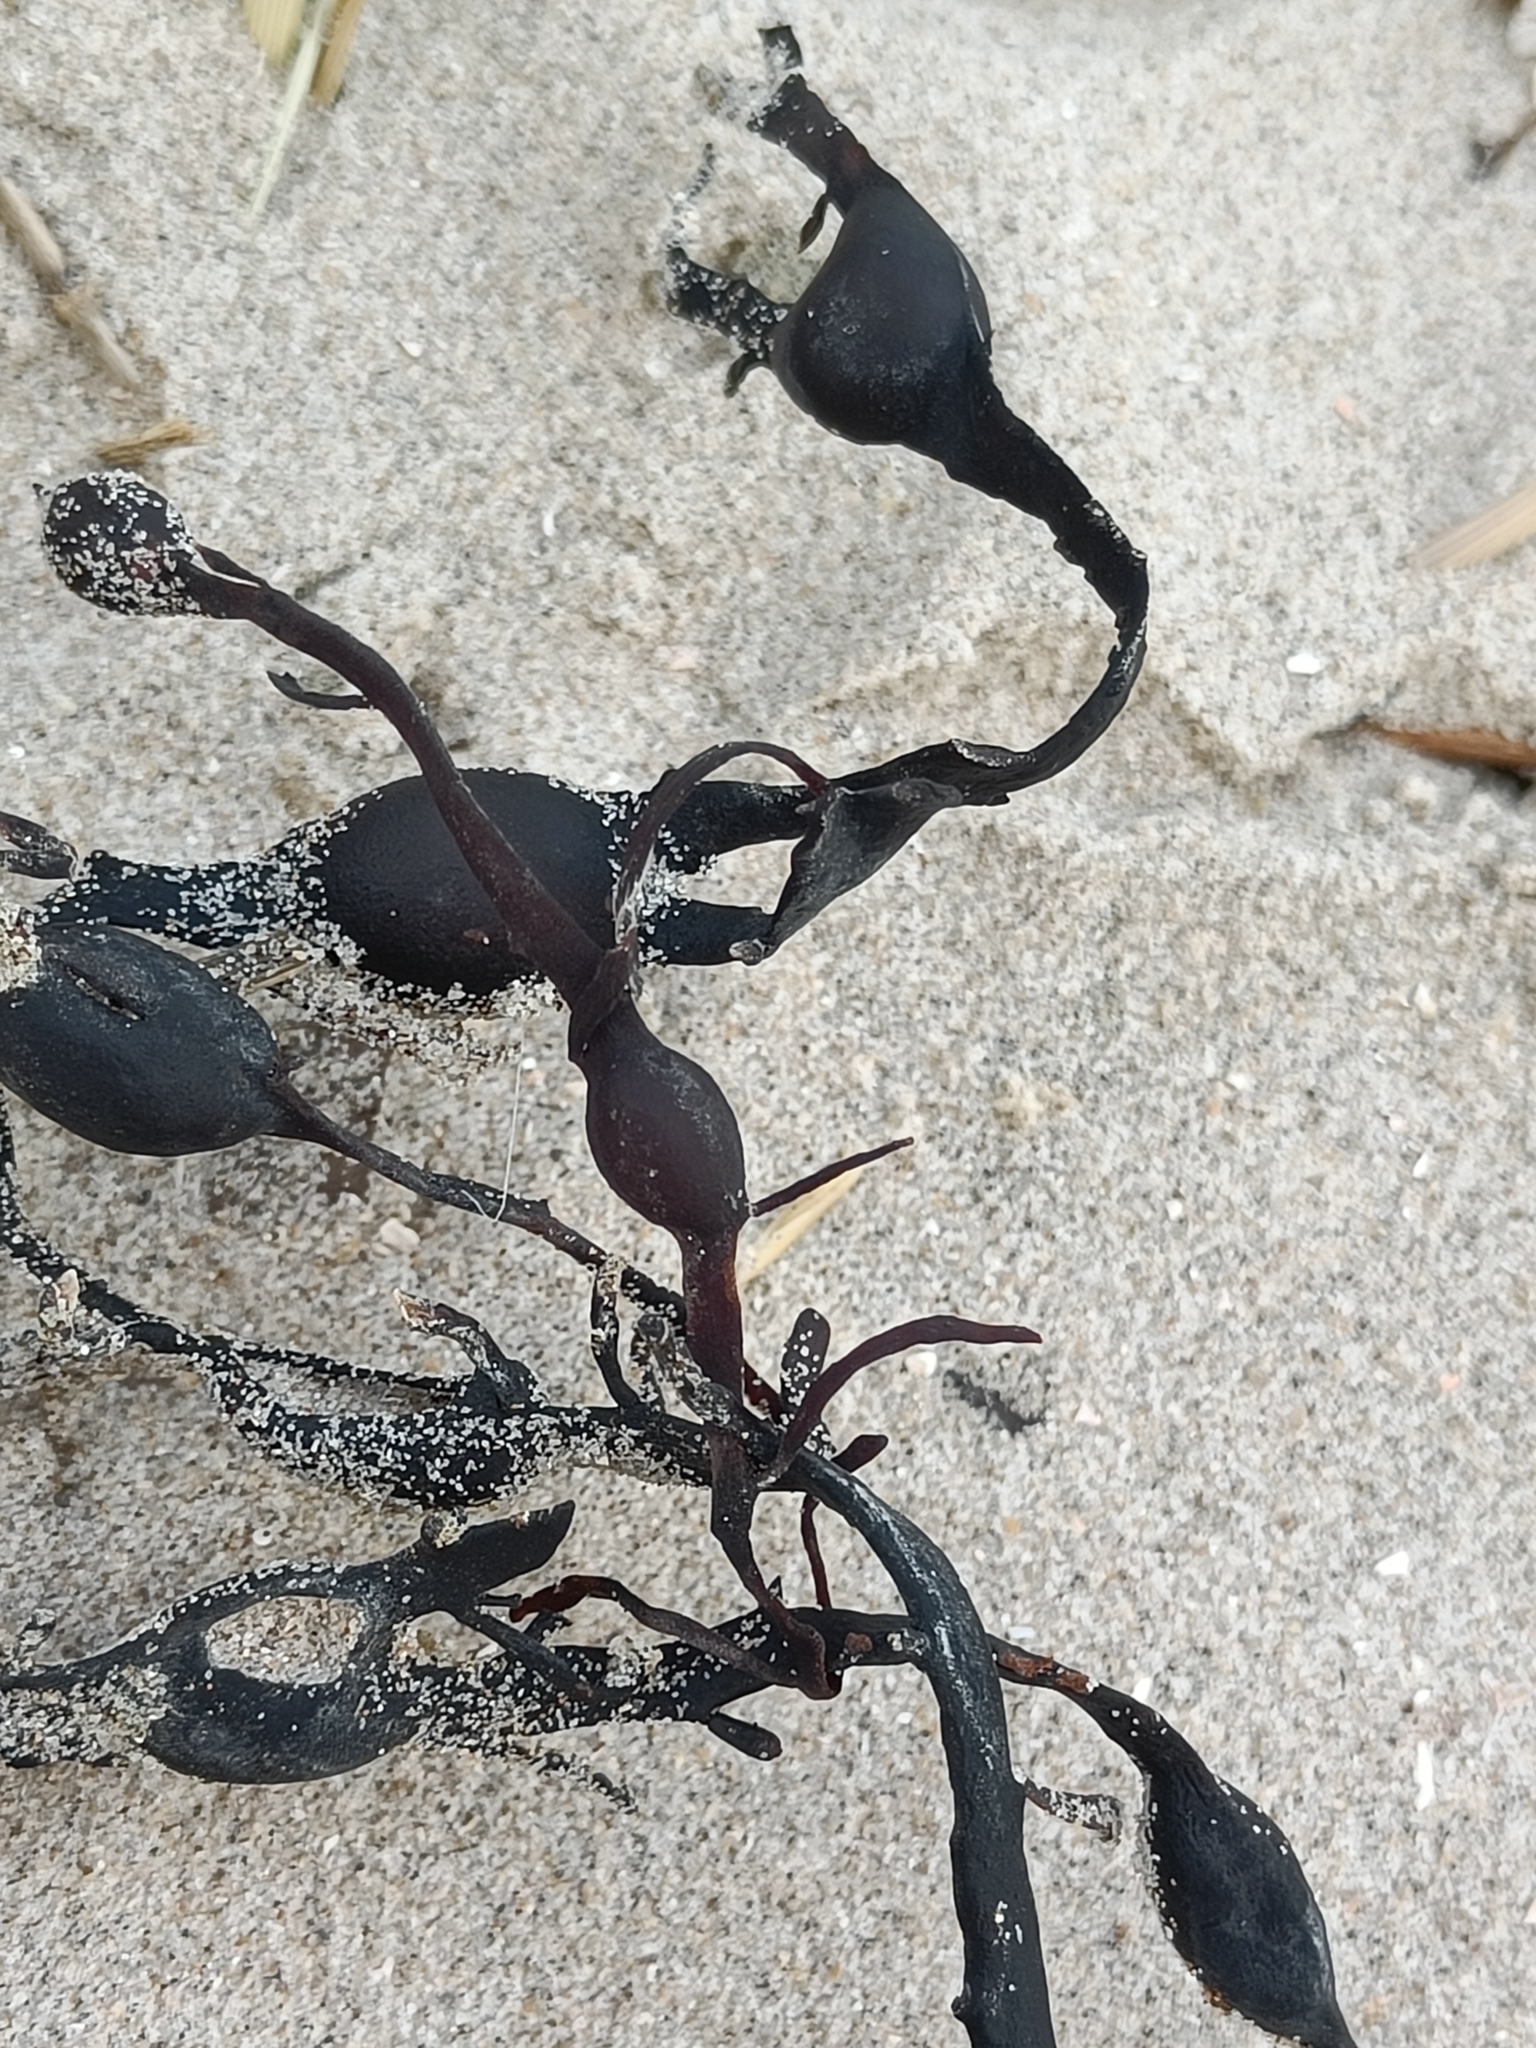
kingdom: Chromista
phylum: Ochrophyta
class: Phaeophyceae
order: Fucales
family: Fucaceae
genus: Ascophyllum
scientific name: Ascophyllum nodosum
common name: Knotted wrack
